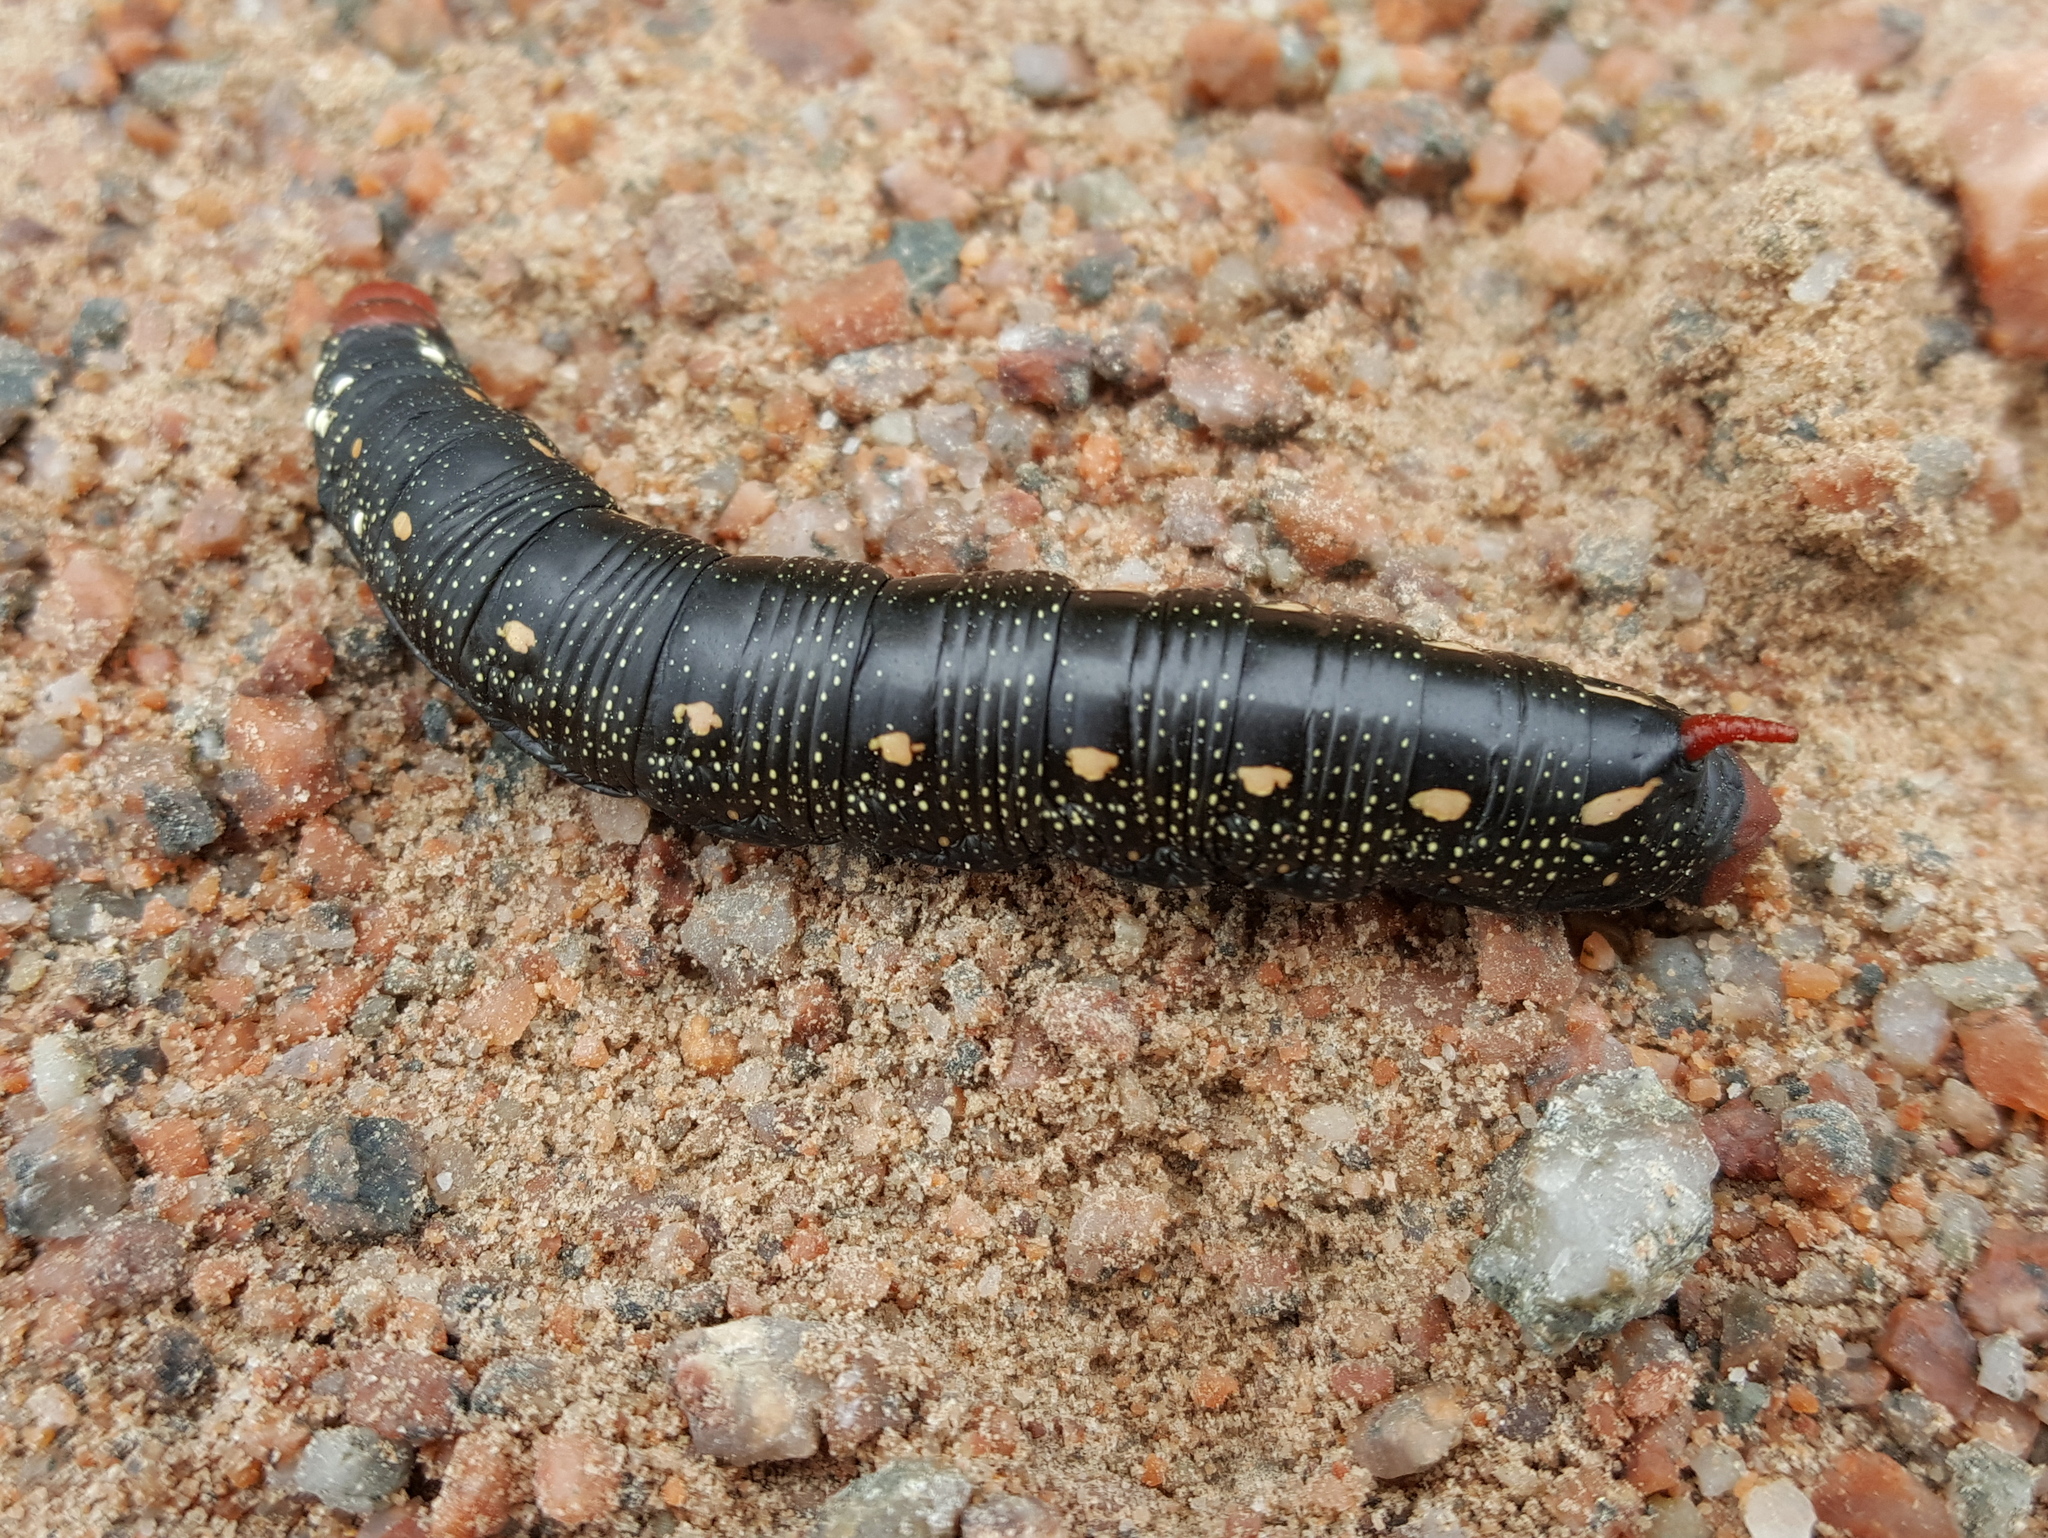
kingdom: Animalia
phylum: Arthropoda
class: Insecta
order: Lepidoptera
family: Sphingidae
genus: Hyles
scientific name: Hyles gallii
